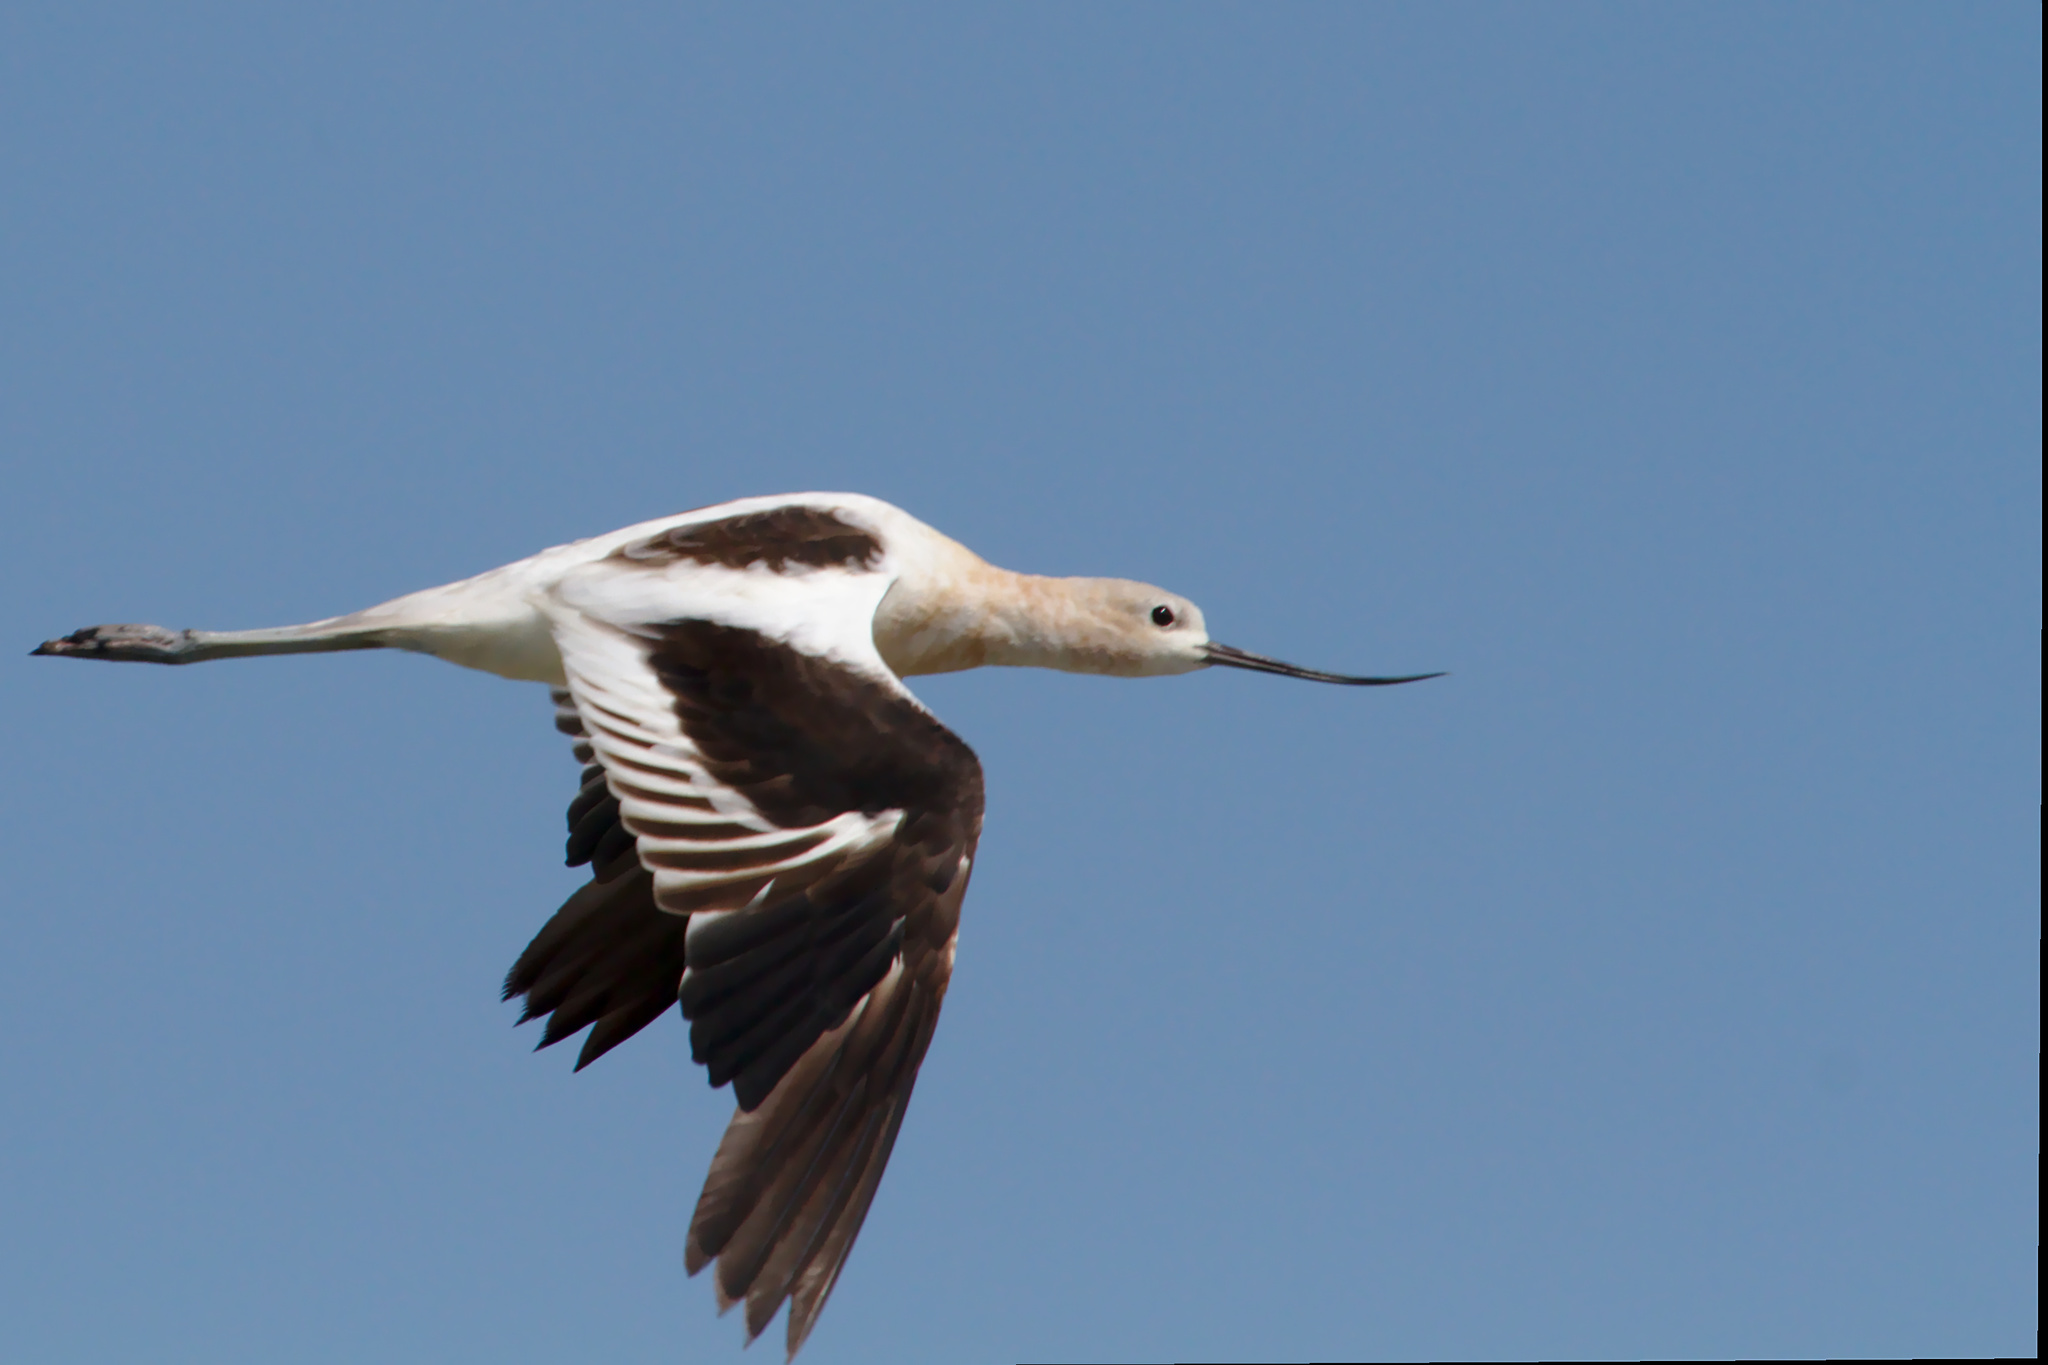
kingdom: Animalia
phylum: Chordata
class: Aves
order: Charadriiformes
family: Recurvirostridae
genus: Recurvirostra
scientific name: Recurvirostra americana
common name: American avocet
